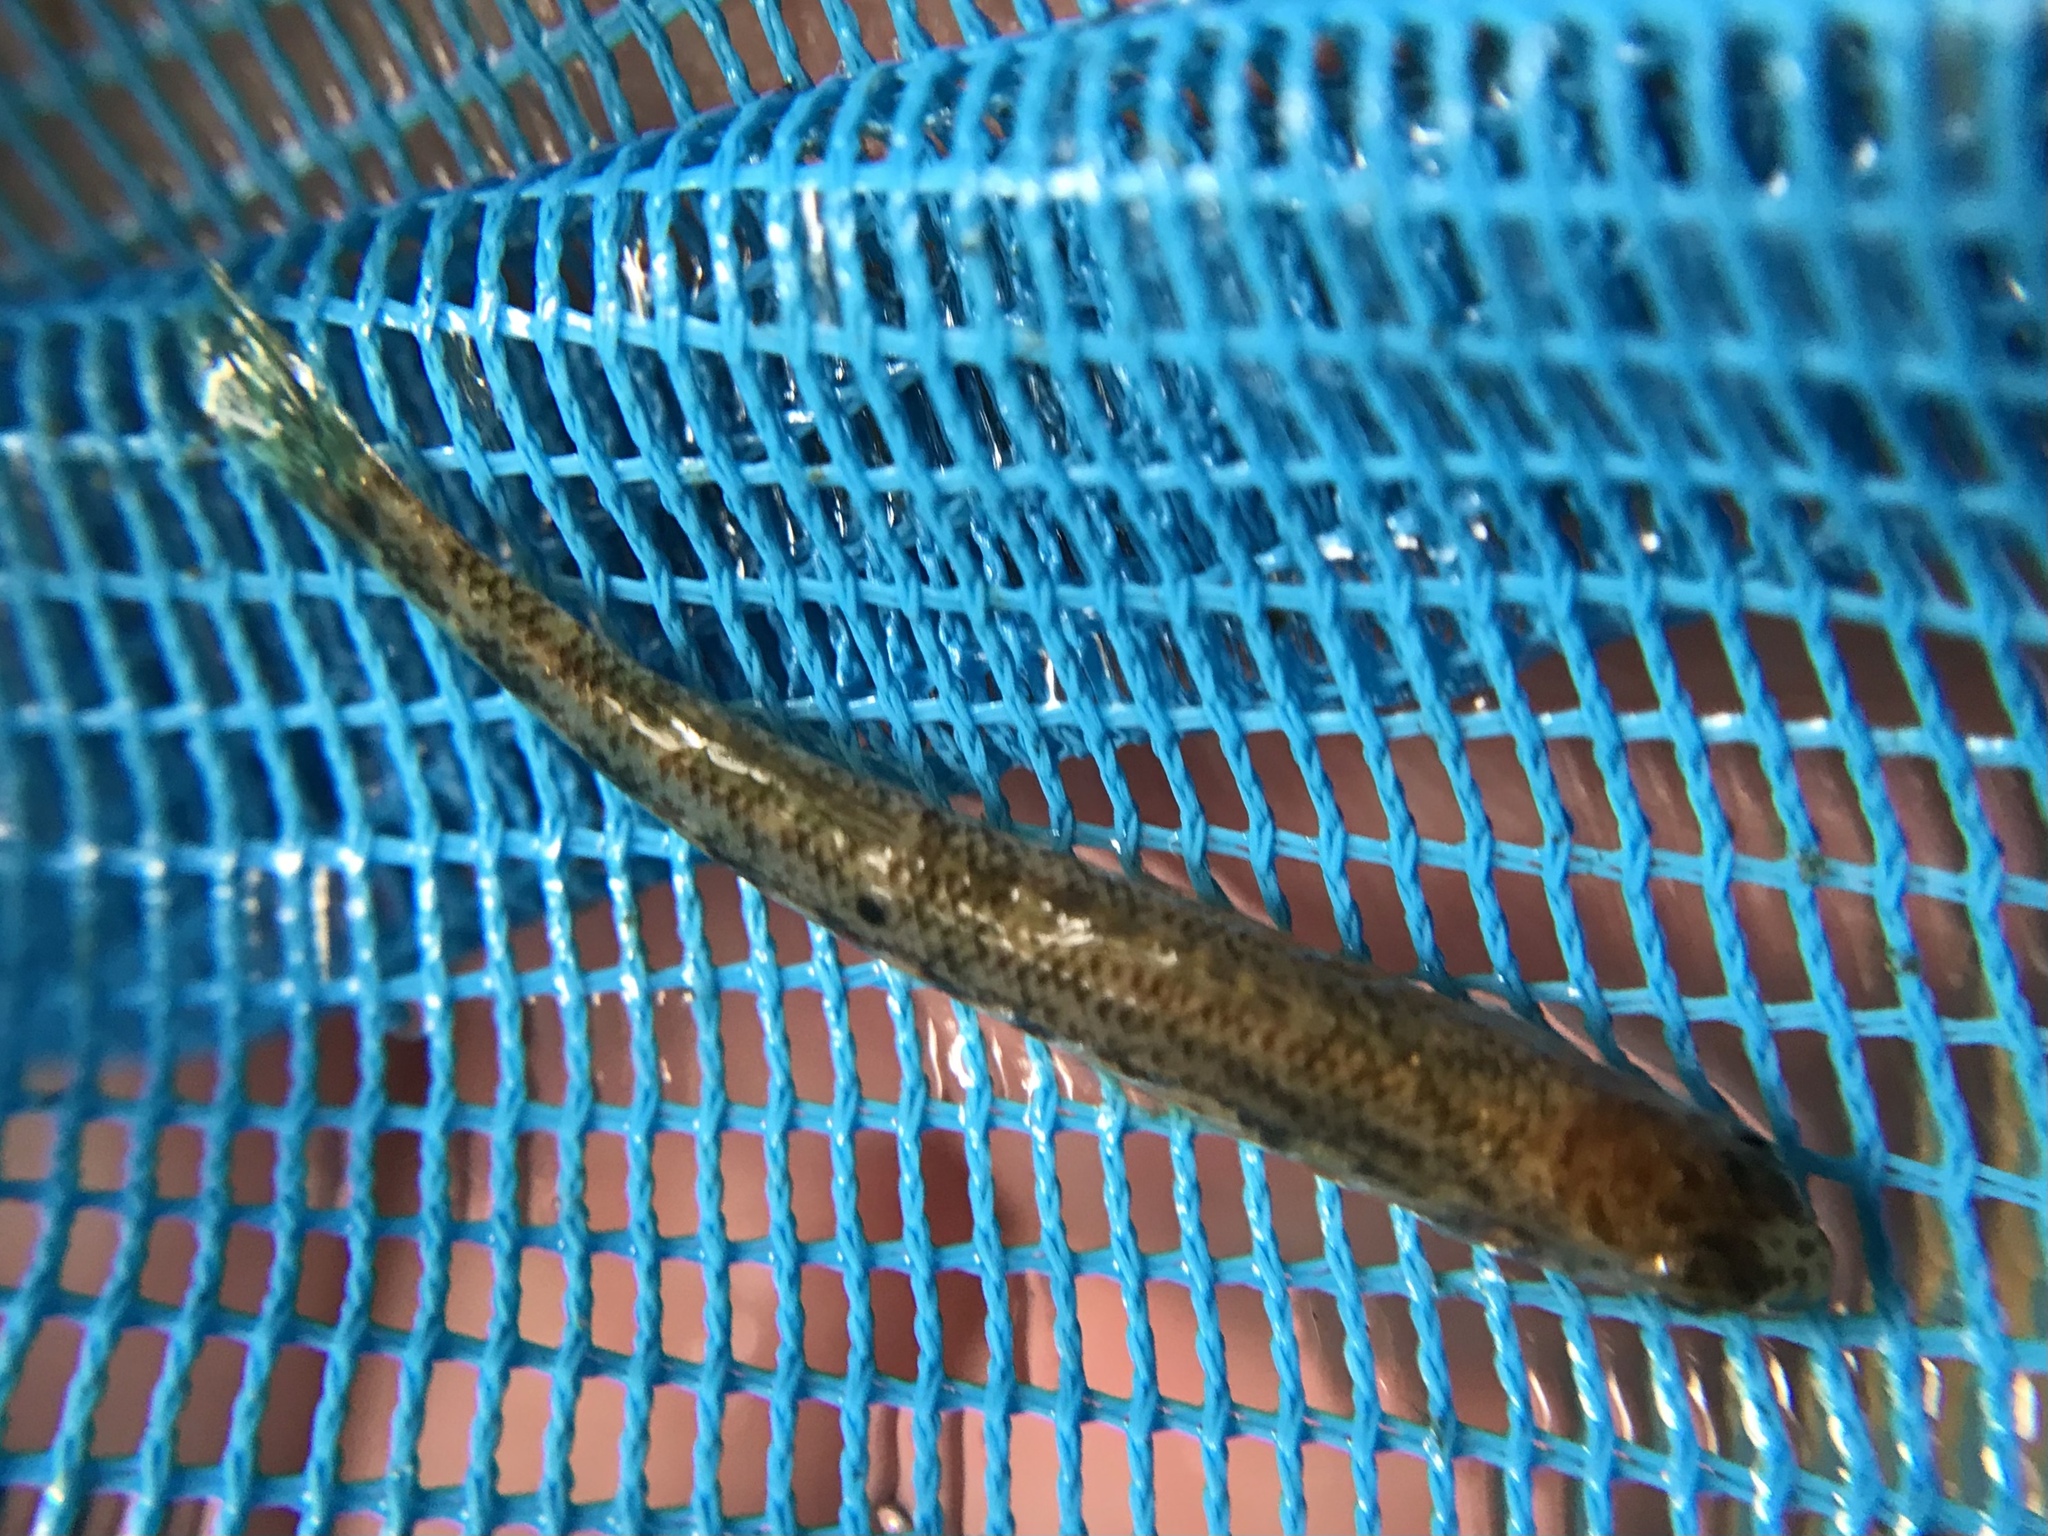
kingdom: Animalia
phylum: Chordata
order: Perciformes
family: Percidae
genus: Etheostoma
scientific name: Etheostoma simoterum
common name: Snubnose darter
